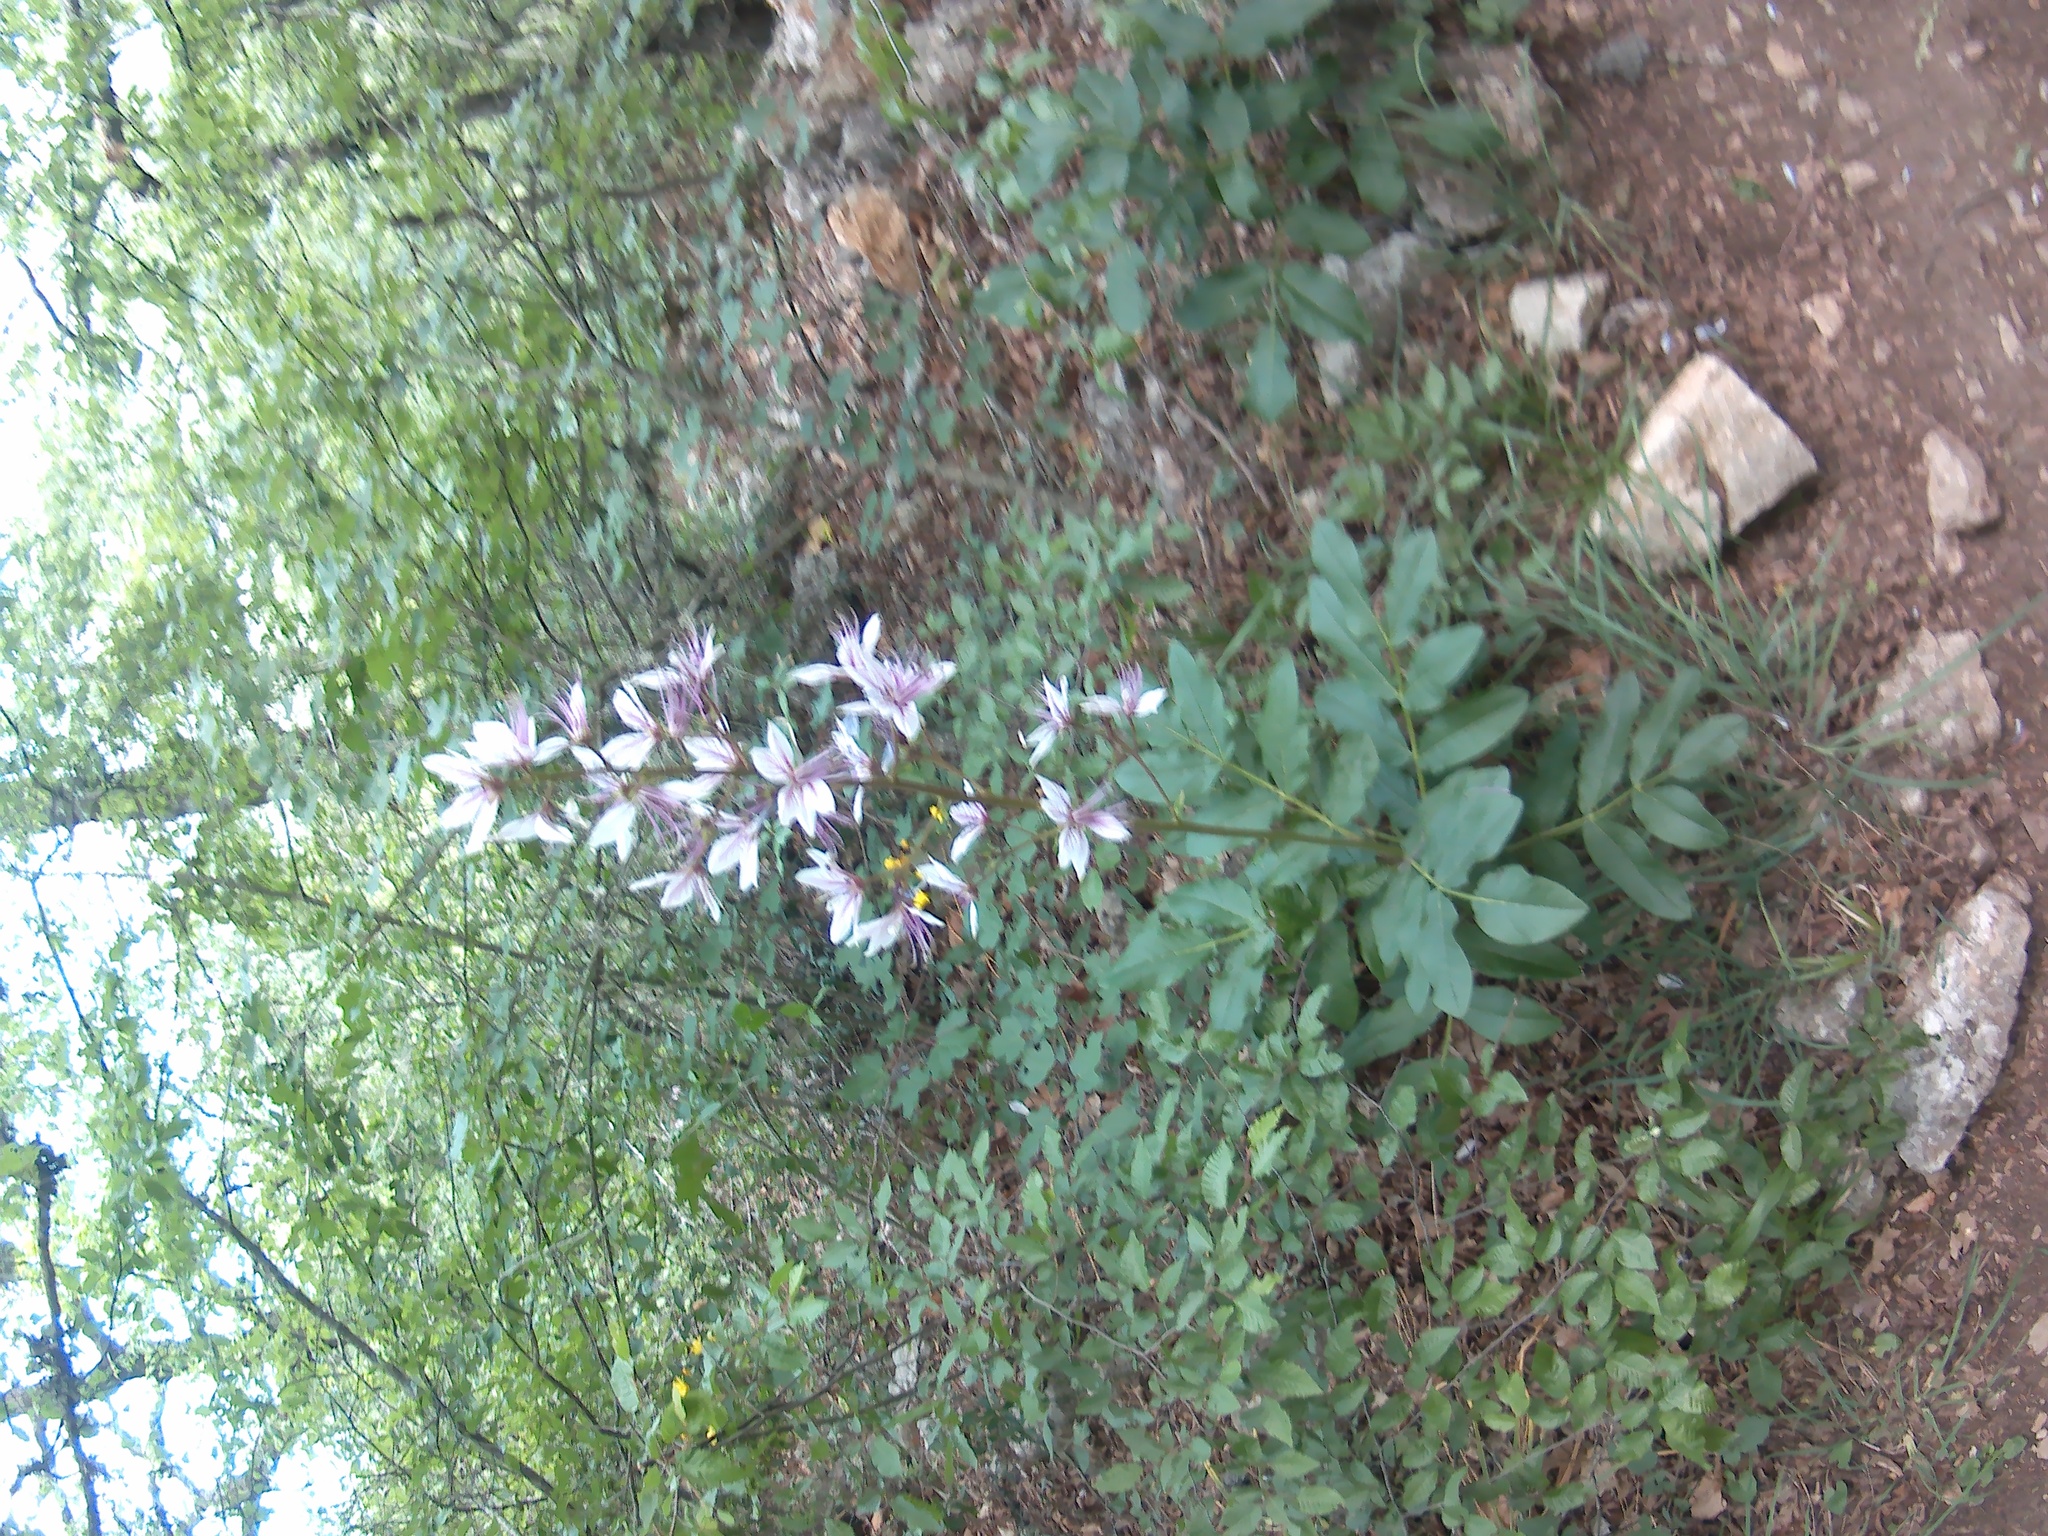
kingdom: Plantae
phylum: Tracheophyta
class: Magnoliopsida
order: Sapindales
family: Rutaceae
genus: Dictamnus
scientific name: Dictamnus albus
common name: Gasplant
